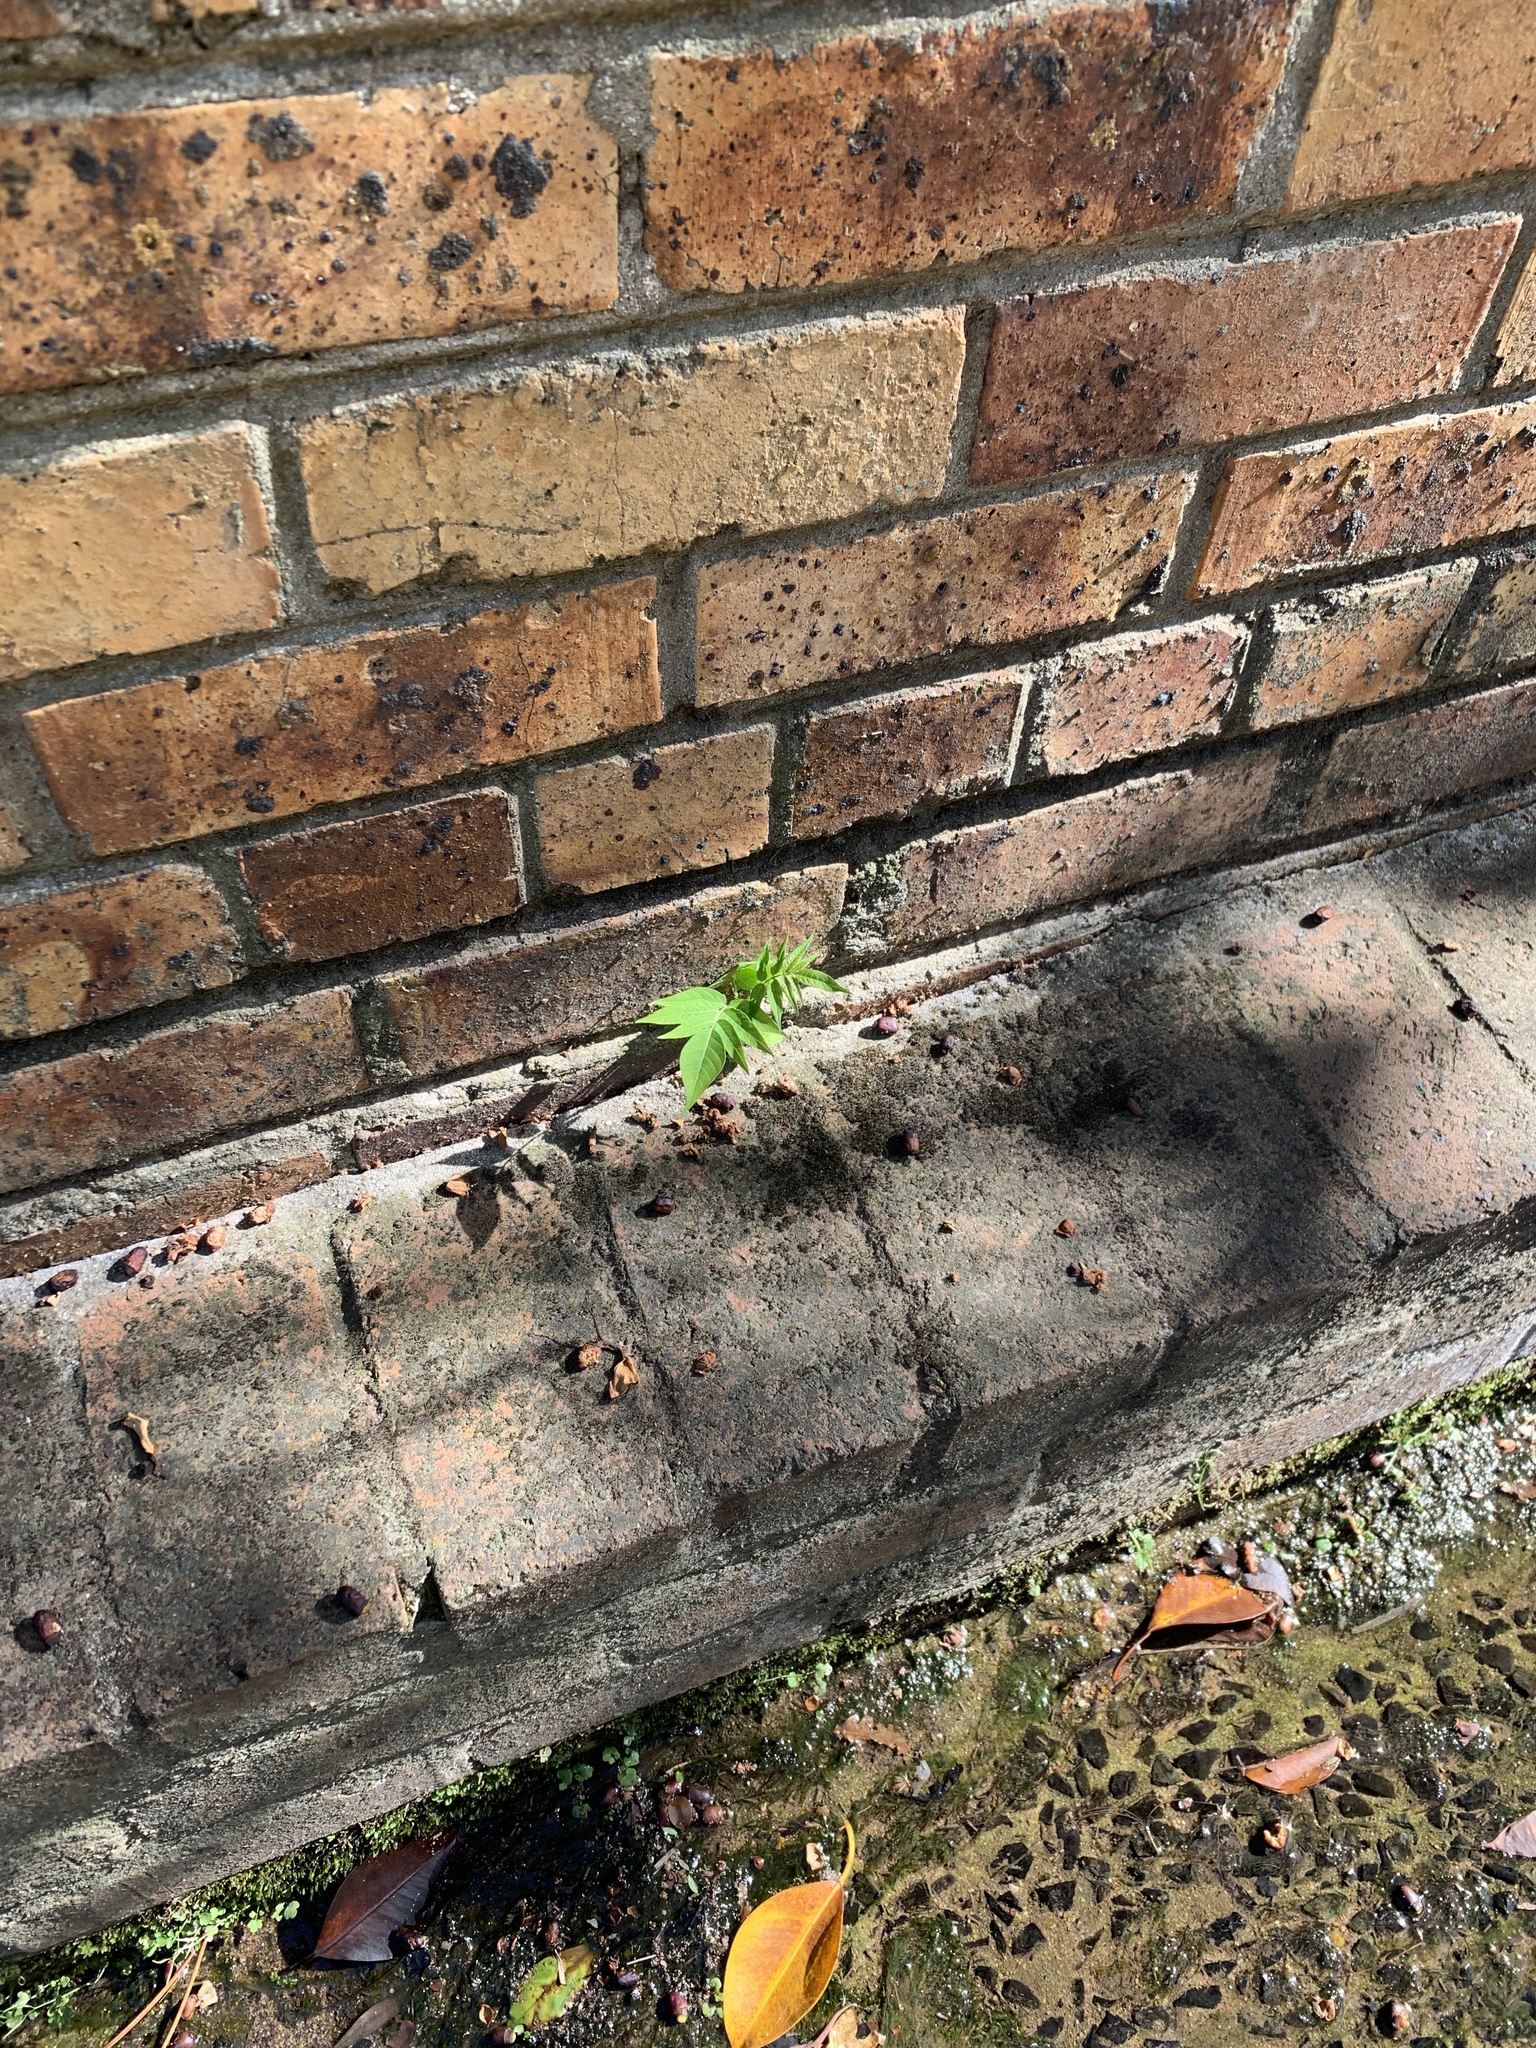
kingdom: Plantae
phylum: Tracheophyta
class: Magnoliopsida
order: Sapindales
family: Simaroubaceae
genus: Ailanthus
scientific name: Ailanthus altissima
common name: Tree-of-heaven
